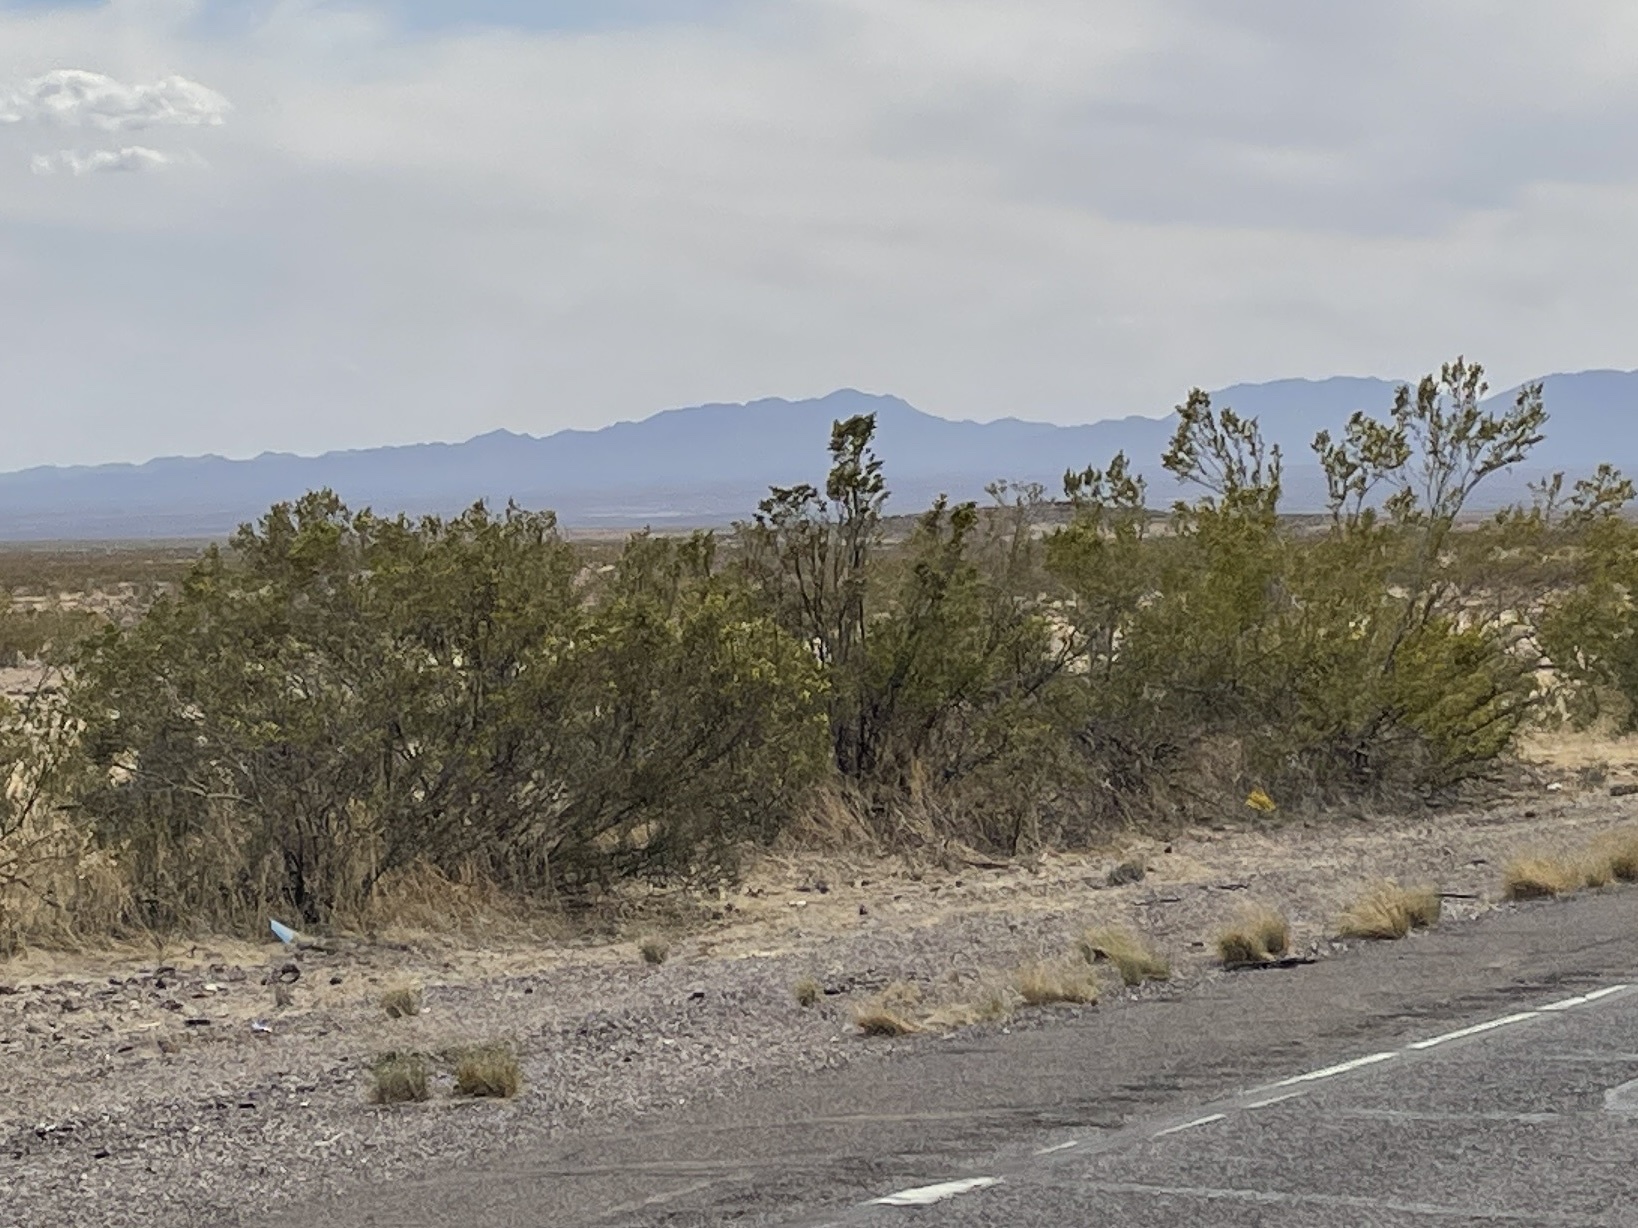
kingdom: Plantae
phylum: Tracheophyta
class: Magnoliopsida
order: Zygophyllales
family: Zygophyllaceae
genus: Larrea
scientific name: Larrea tridentata
